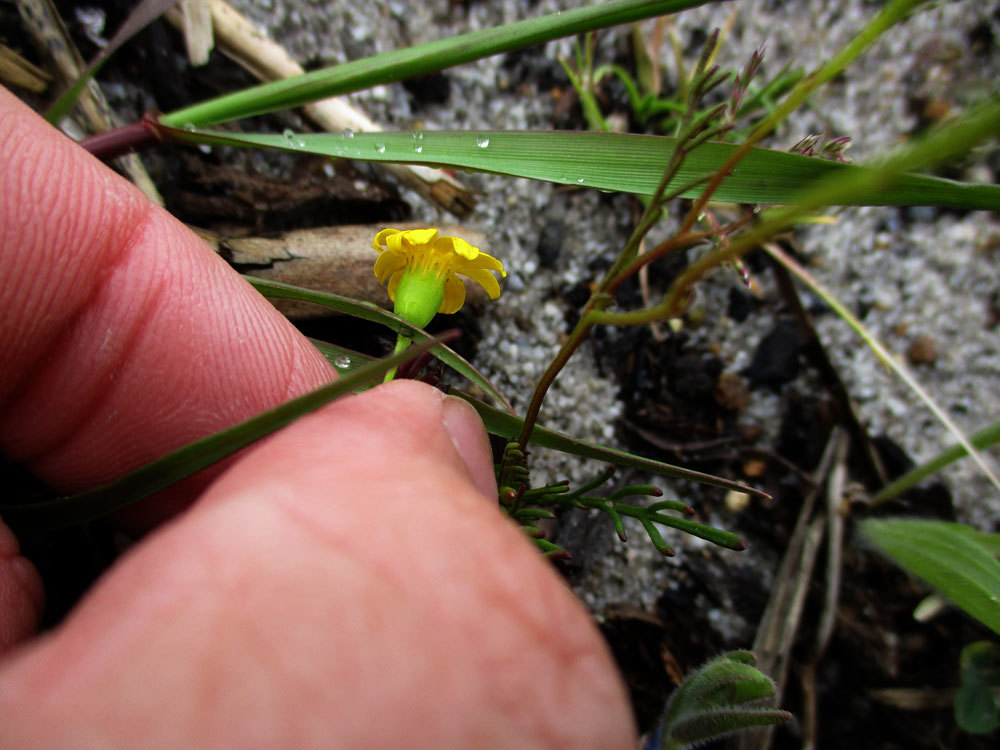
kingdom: Plantae
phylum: Tracheophyta
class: Magnoliopsida
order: Asterales
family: Asteraceae
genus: Steirodiscus
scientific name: Steirodiscus tagetes
